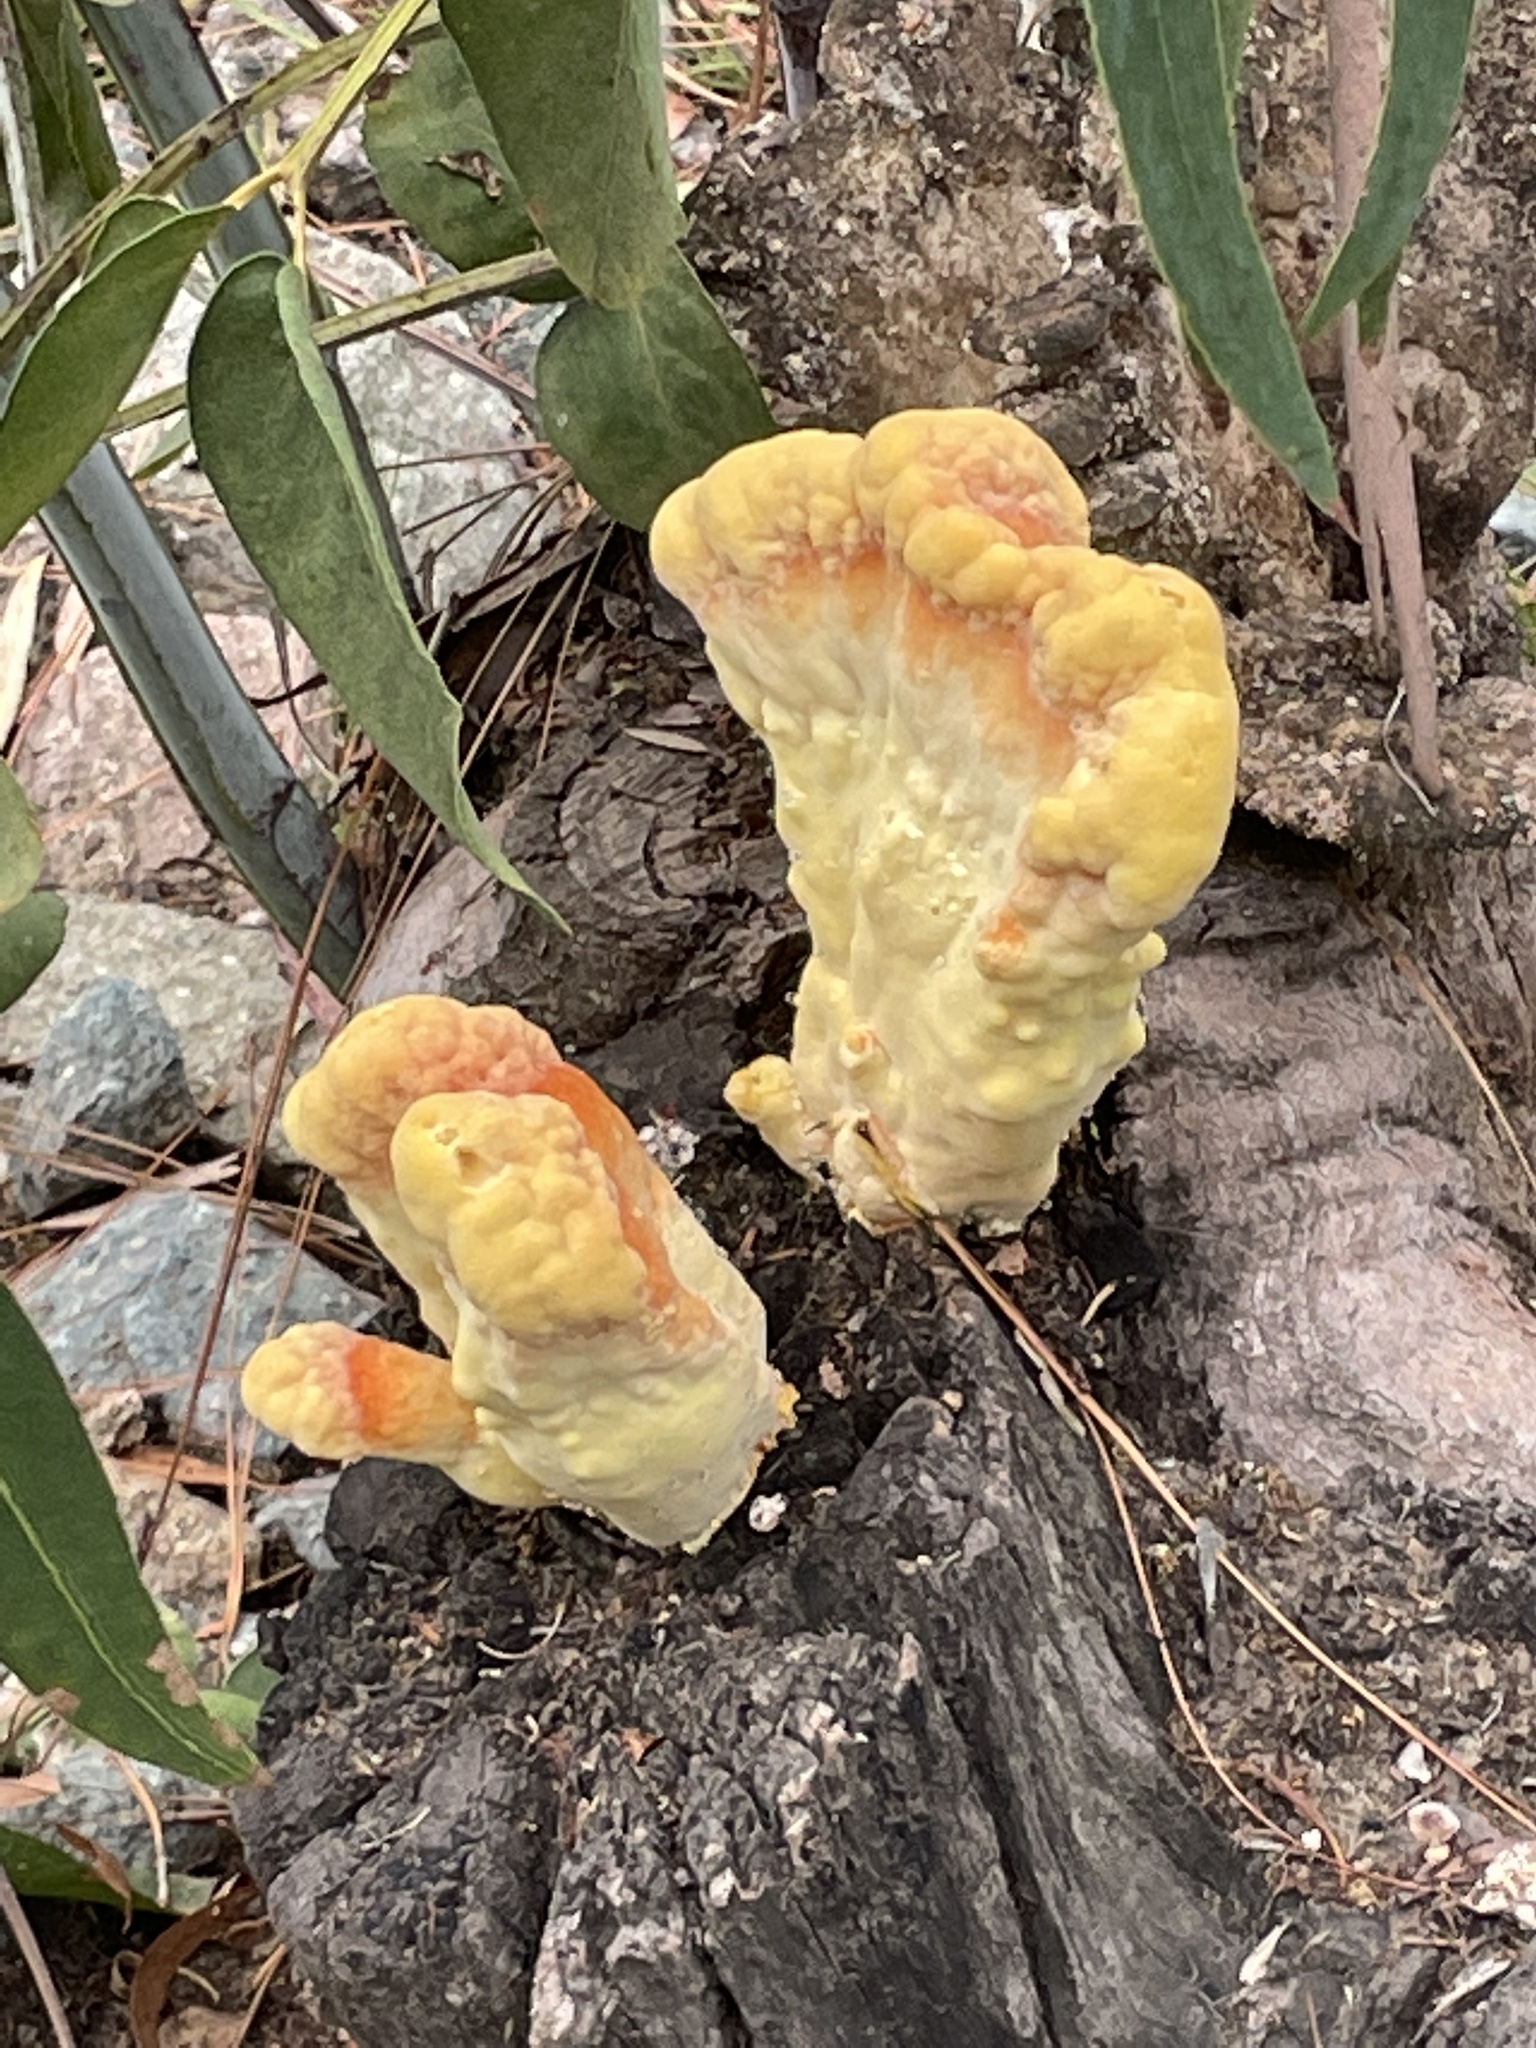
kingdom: Fungi
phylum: Basidiomycota
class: Agaricomycetes
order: Polyporales
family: Laetiporaceae
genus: Laetiporus
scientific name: Laetiporus gilbertsonii
